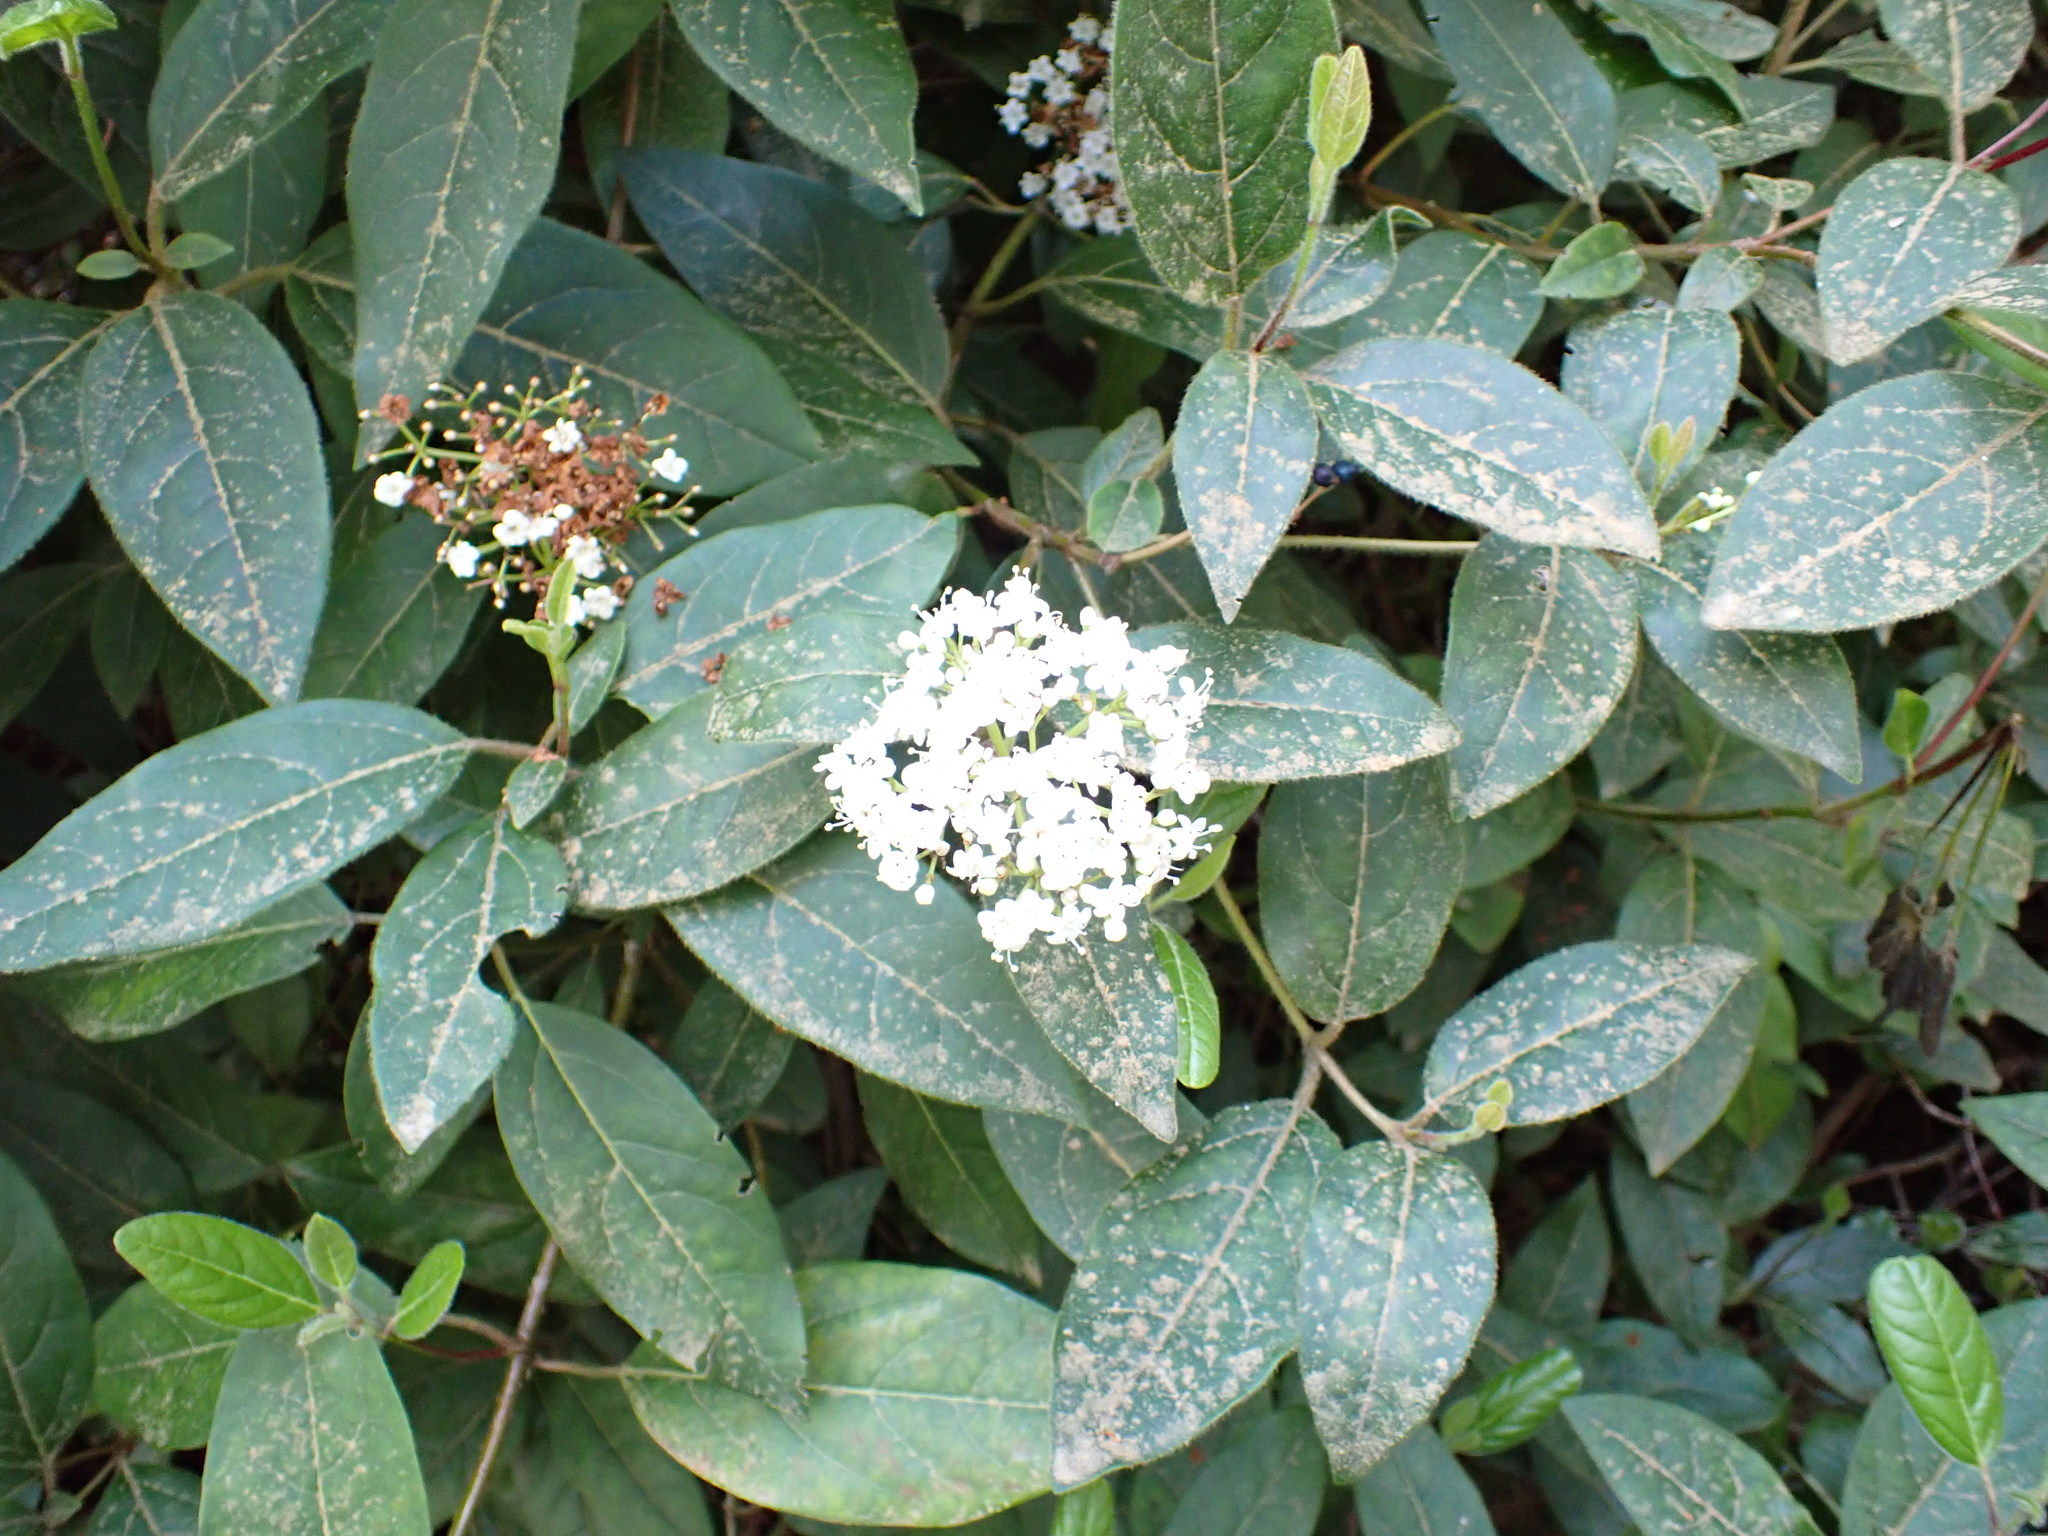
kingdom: Plantae
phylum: Tracheophyta
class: Magnoliopsida
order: Dipsacales
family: Viburnaceae
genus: Viburnum
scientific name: Viburnum tinus
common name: Laurustinus
